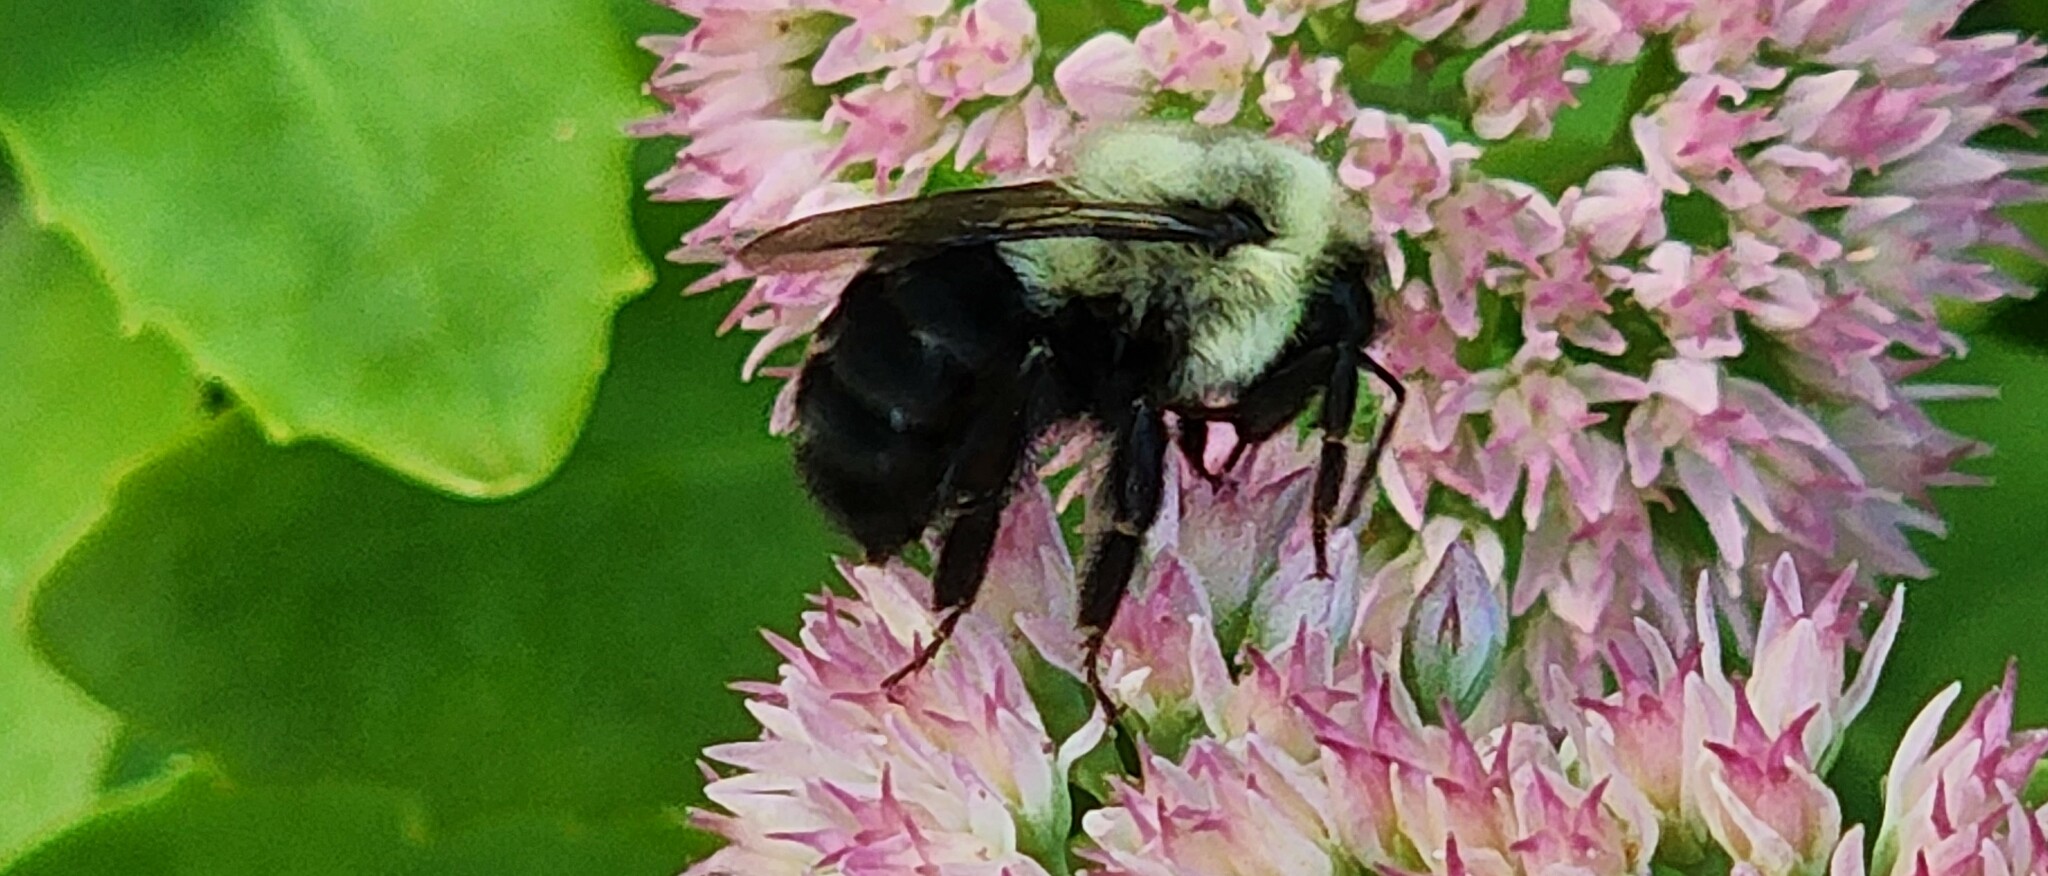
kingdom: Animalia
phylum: Arthropoda
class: Insecta
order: Hymenoptera
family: Apidae
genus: Bombus
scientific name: Bombus impatiens
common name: Common eastern bumble bee
